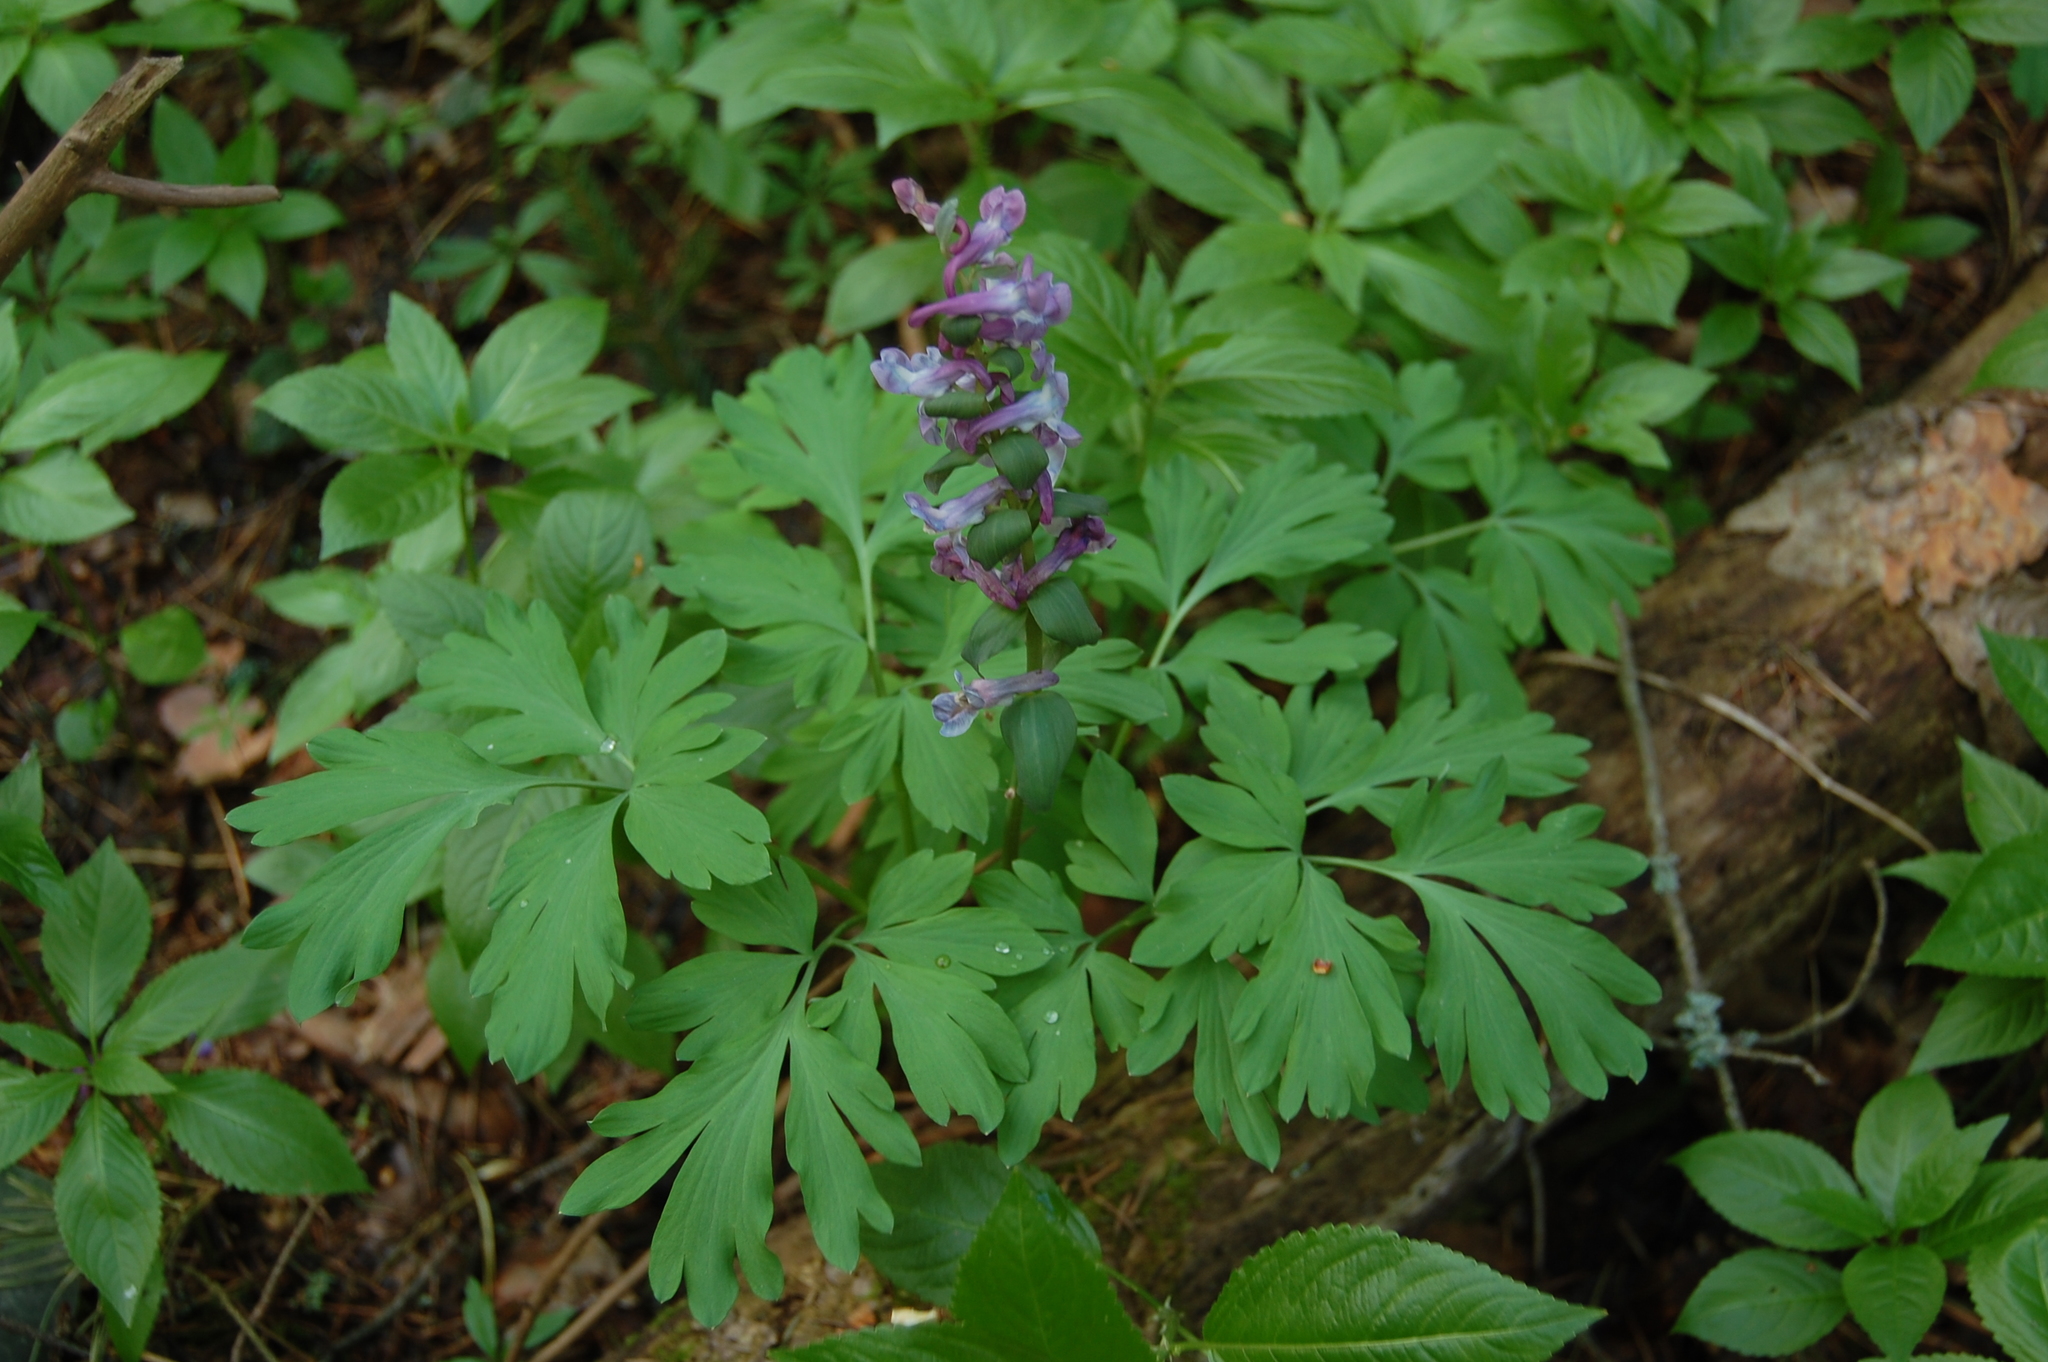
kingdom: Plantae
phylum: Tracheophyta
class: Magnoliopsida
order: Ranunculales
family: Papaveraceae
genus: Corydalis
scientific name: Corydalis cava
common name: Hollowroot
